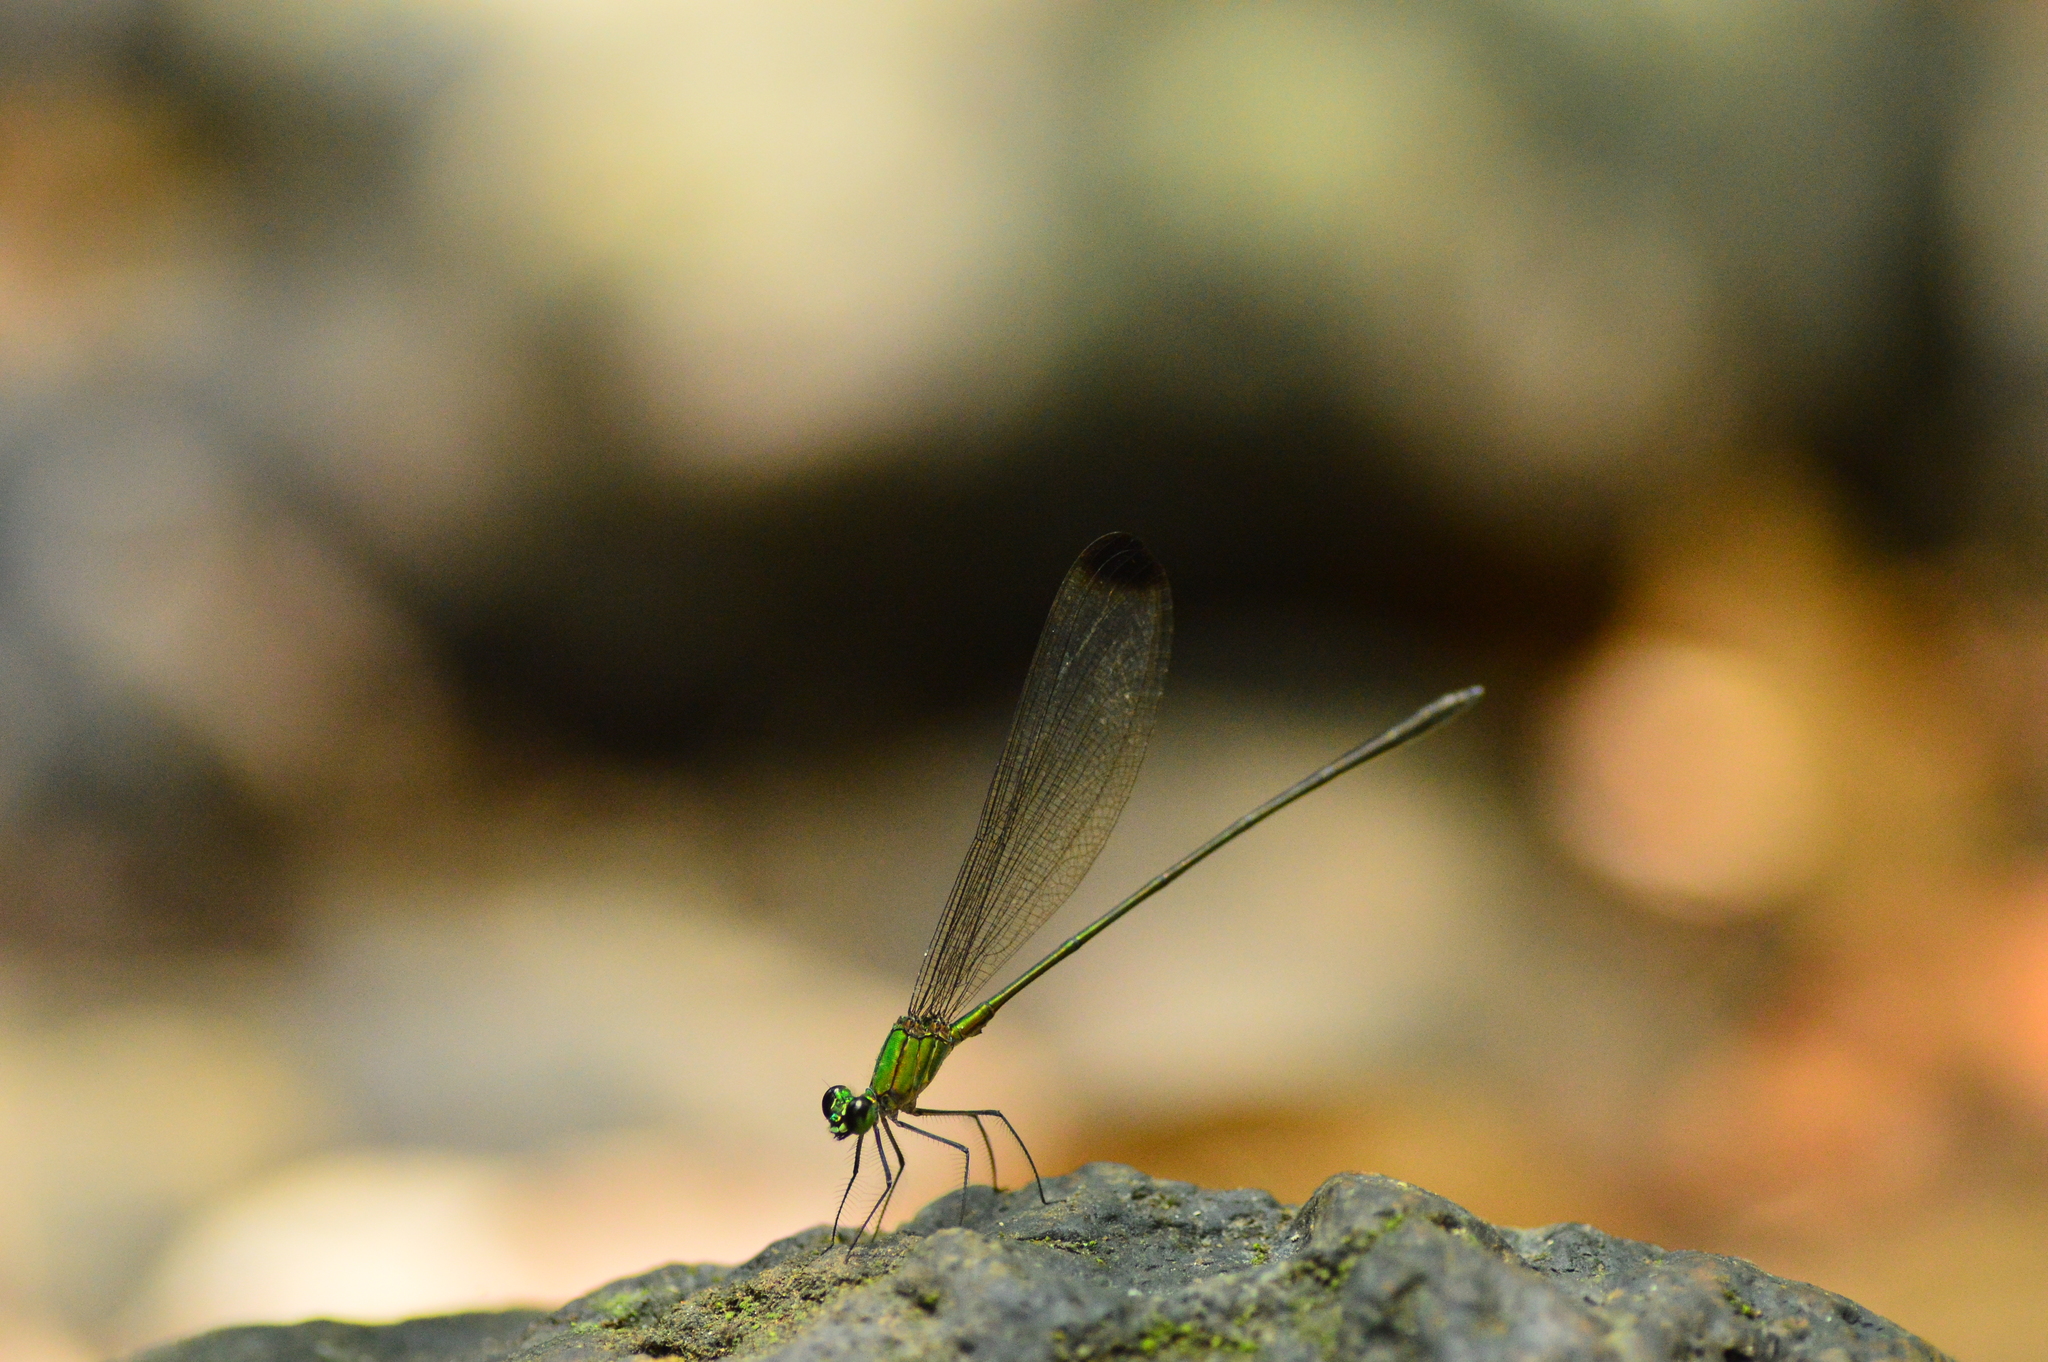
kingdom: Animalia
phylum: Arthropoda
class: Insecta
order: Odonata
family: Calopterygidae
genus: Vestalis
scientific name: Vestalis apicalis
